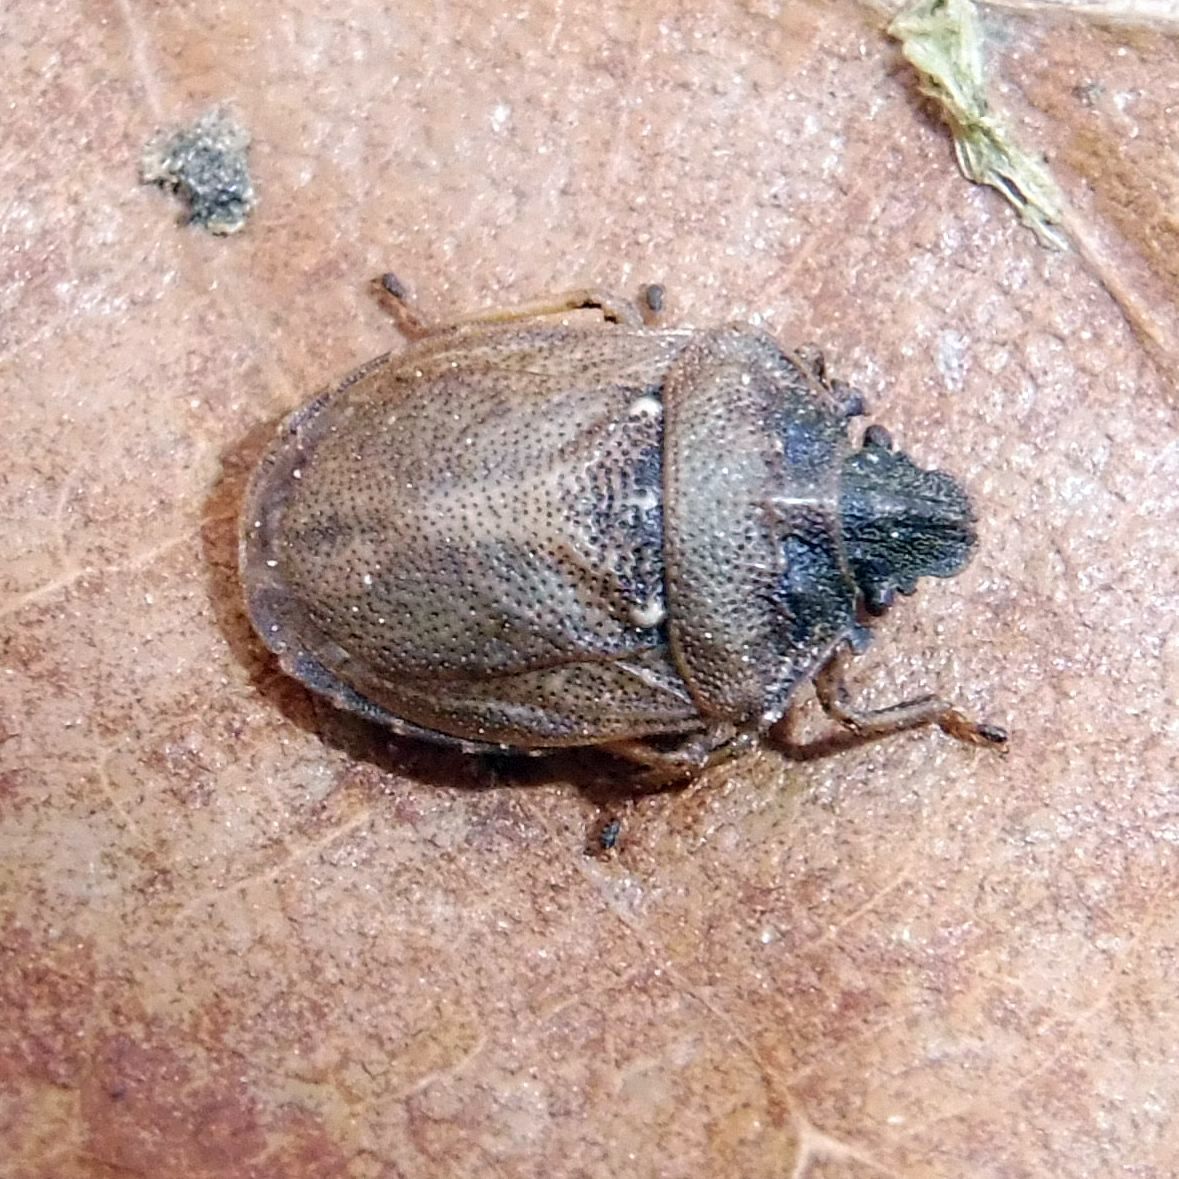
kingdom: Animalia
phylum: Arthropoda
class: Insecta
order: Hemiptera
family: Pentatomidae
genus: Podops
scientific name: Podops inunctus
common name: Turtle bug
